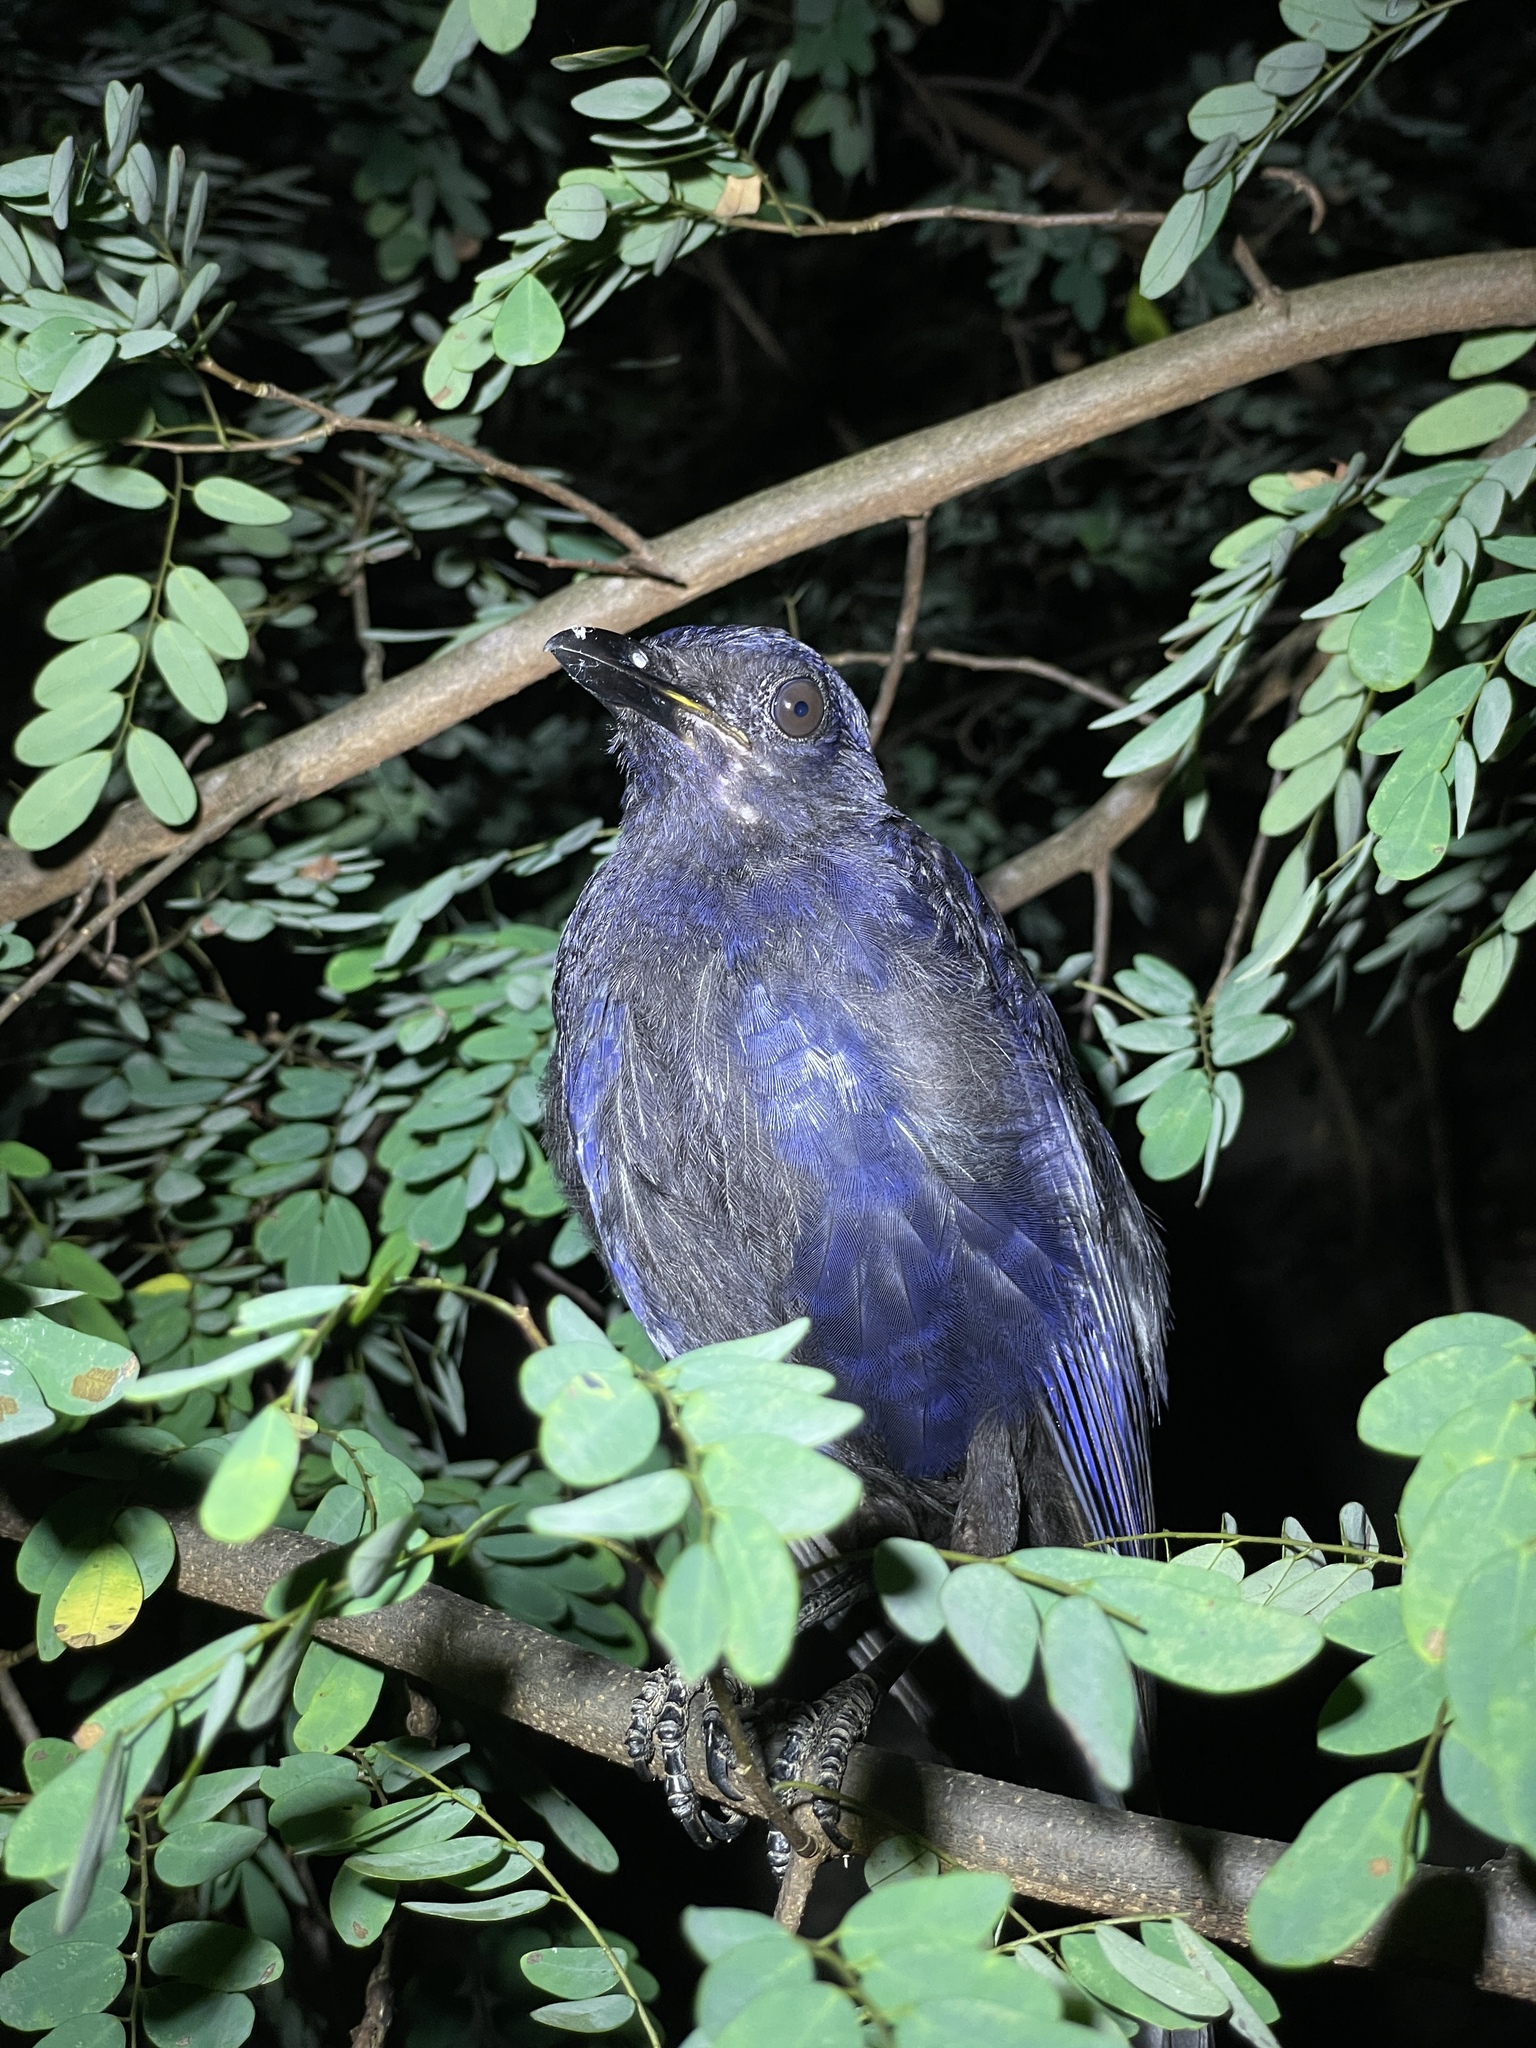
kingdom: Animalia
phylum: Chordata
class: Aves
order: Passeriformes
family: Muscicapidae
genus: Myophonus
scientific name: Myophonus caeruleus
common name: Blue whistling-thrush
